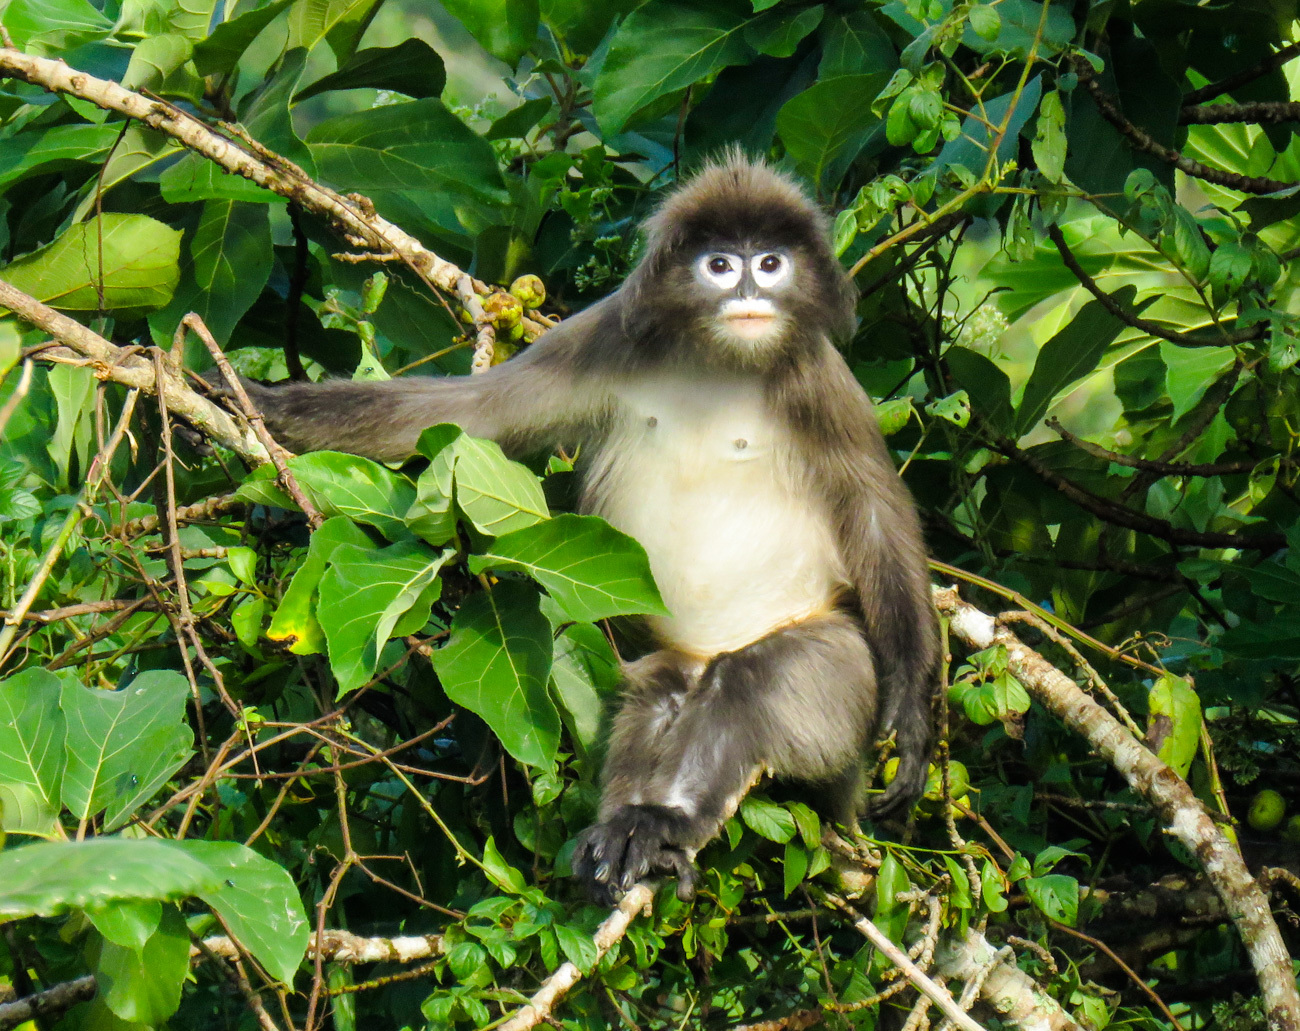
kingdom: Animalia
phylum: Chordata
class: Mammalia
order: Primates
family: Cercopithecidae
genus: Trachypithecus
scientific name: Trachypithecus phayrei
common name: Phayre's leaf monkey
